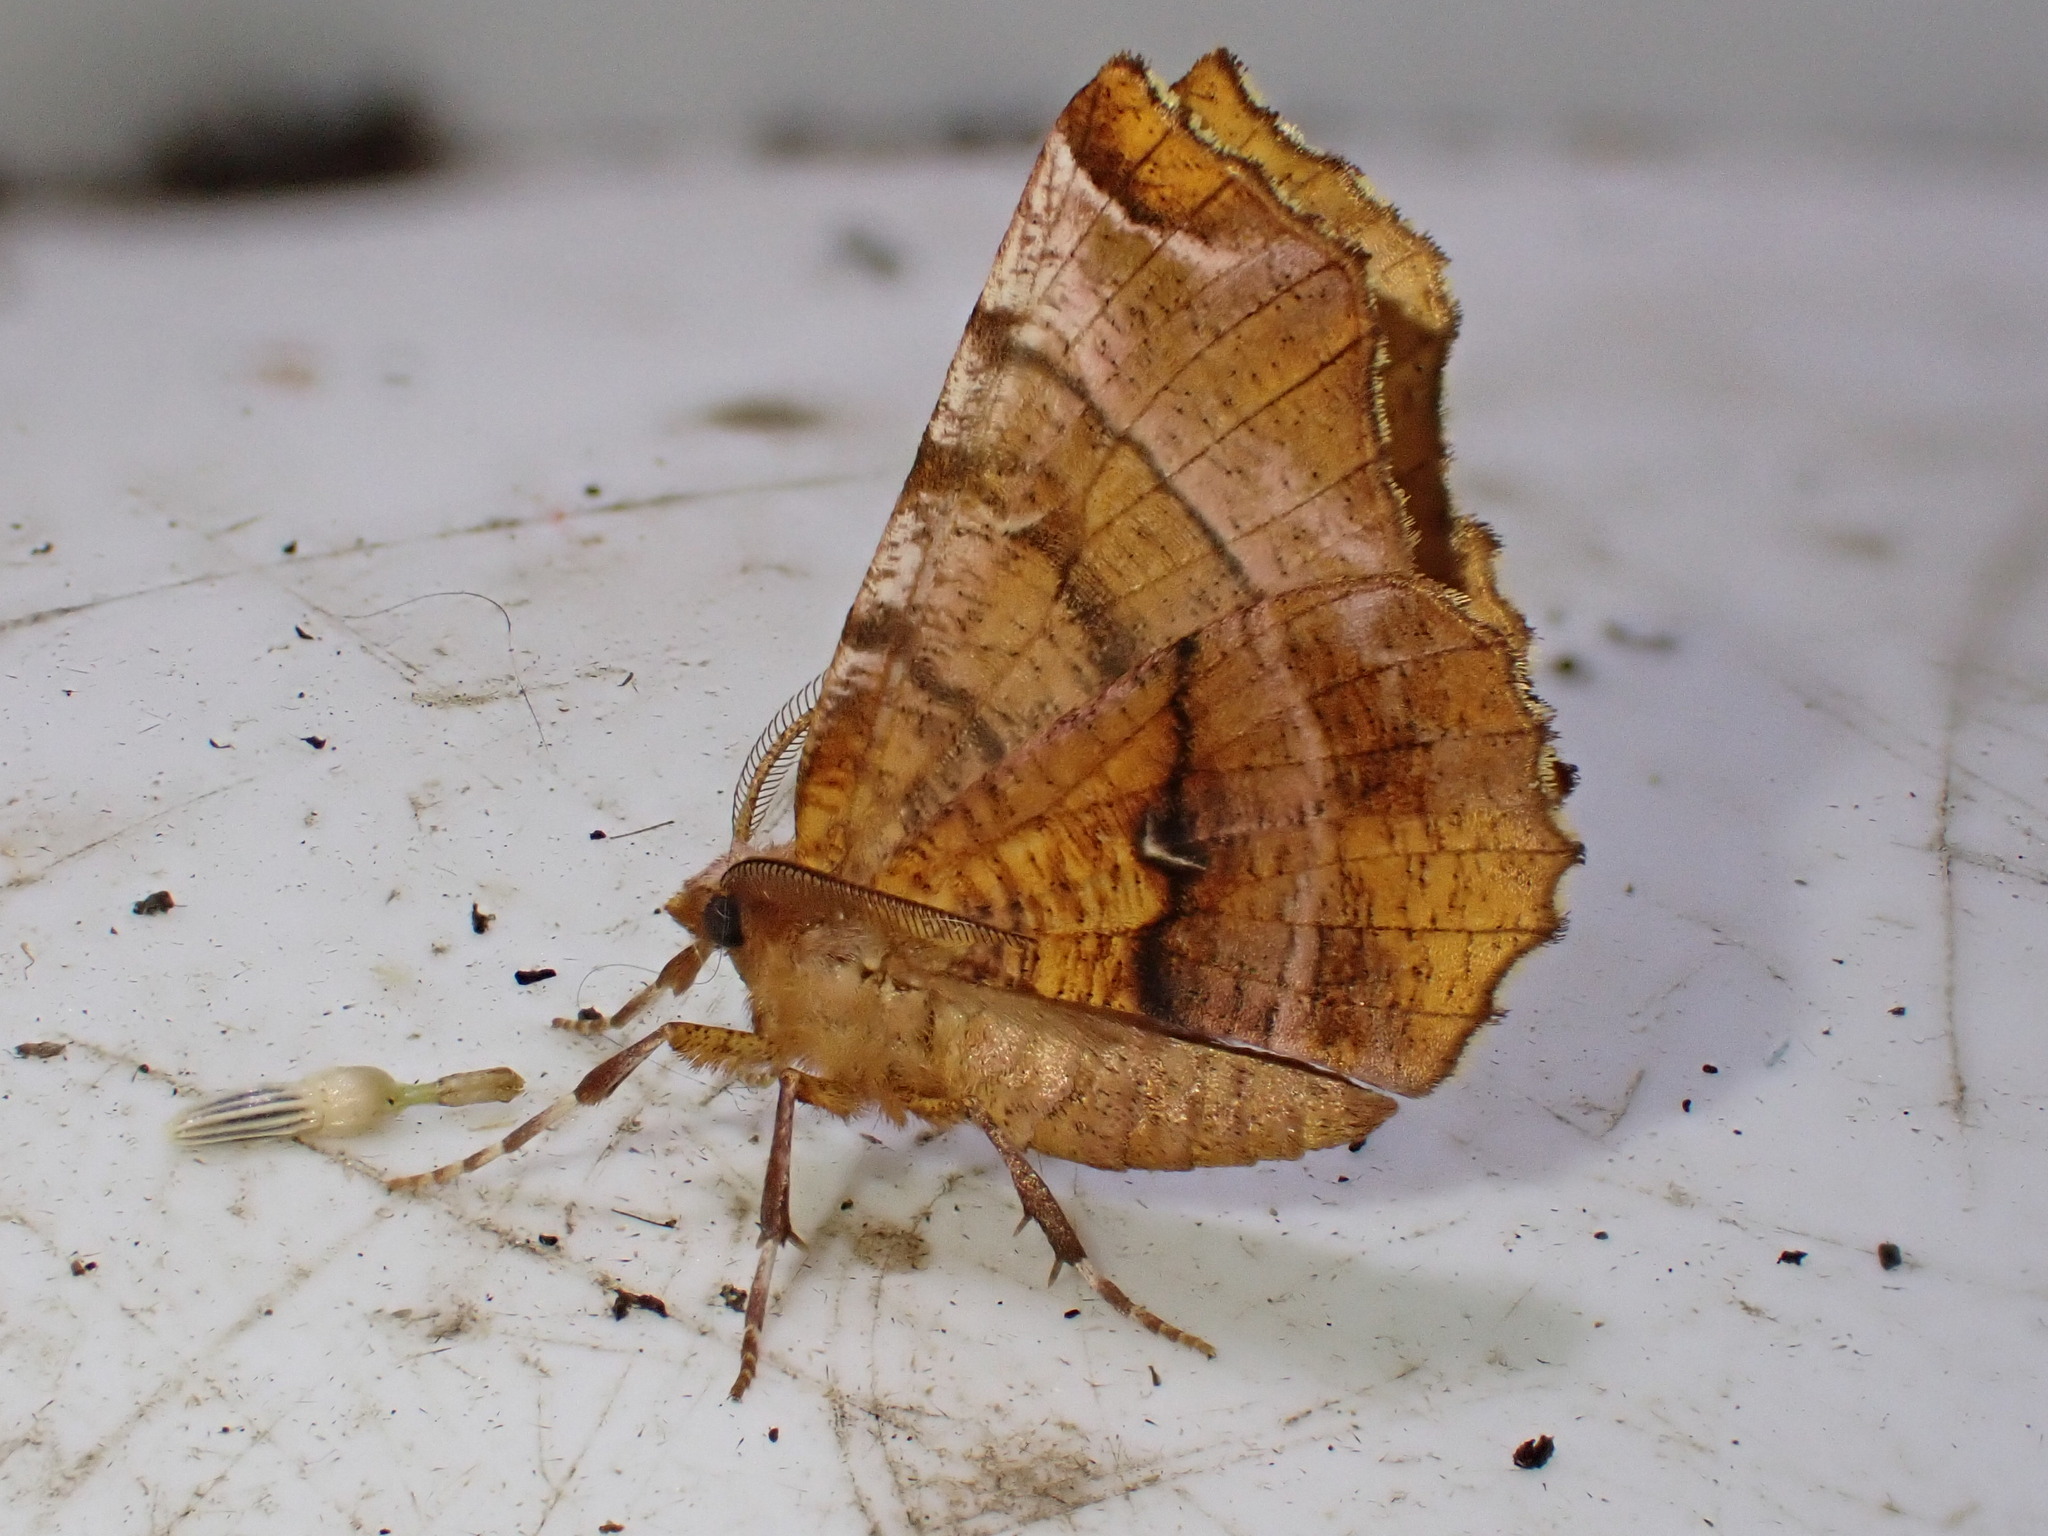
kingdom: Animalia
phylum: Arthropoda
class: Insecta
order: Lepidoptera
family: Geometridae
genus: Selenia
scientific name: Selenia dentaria
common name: Early thorn
